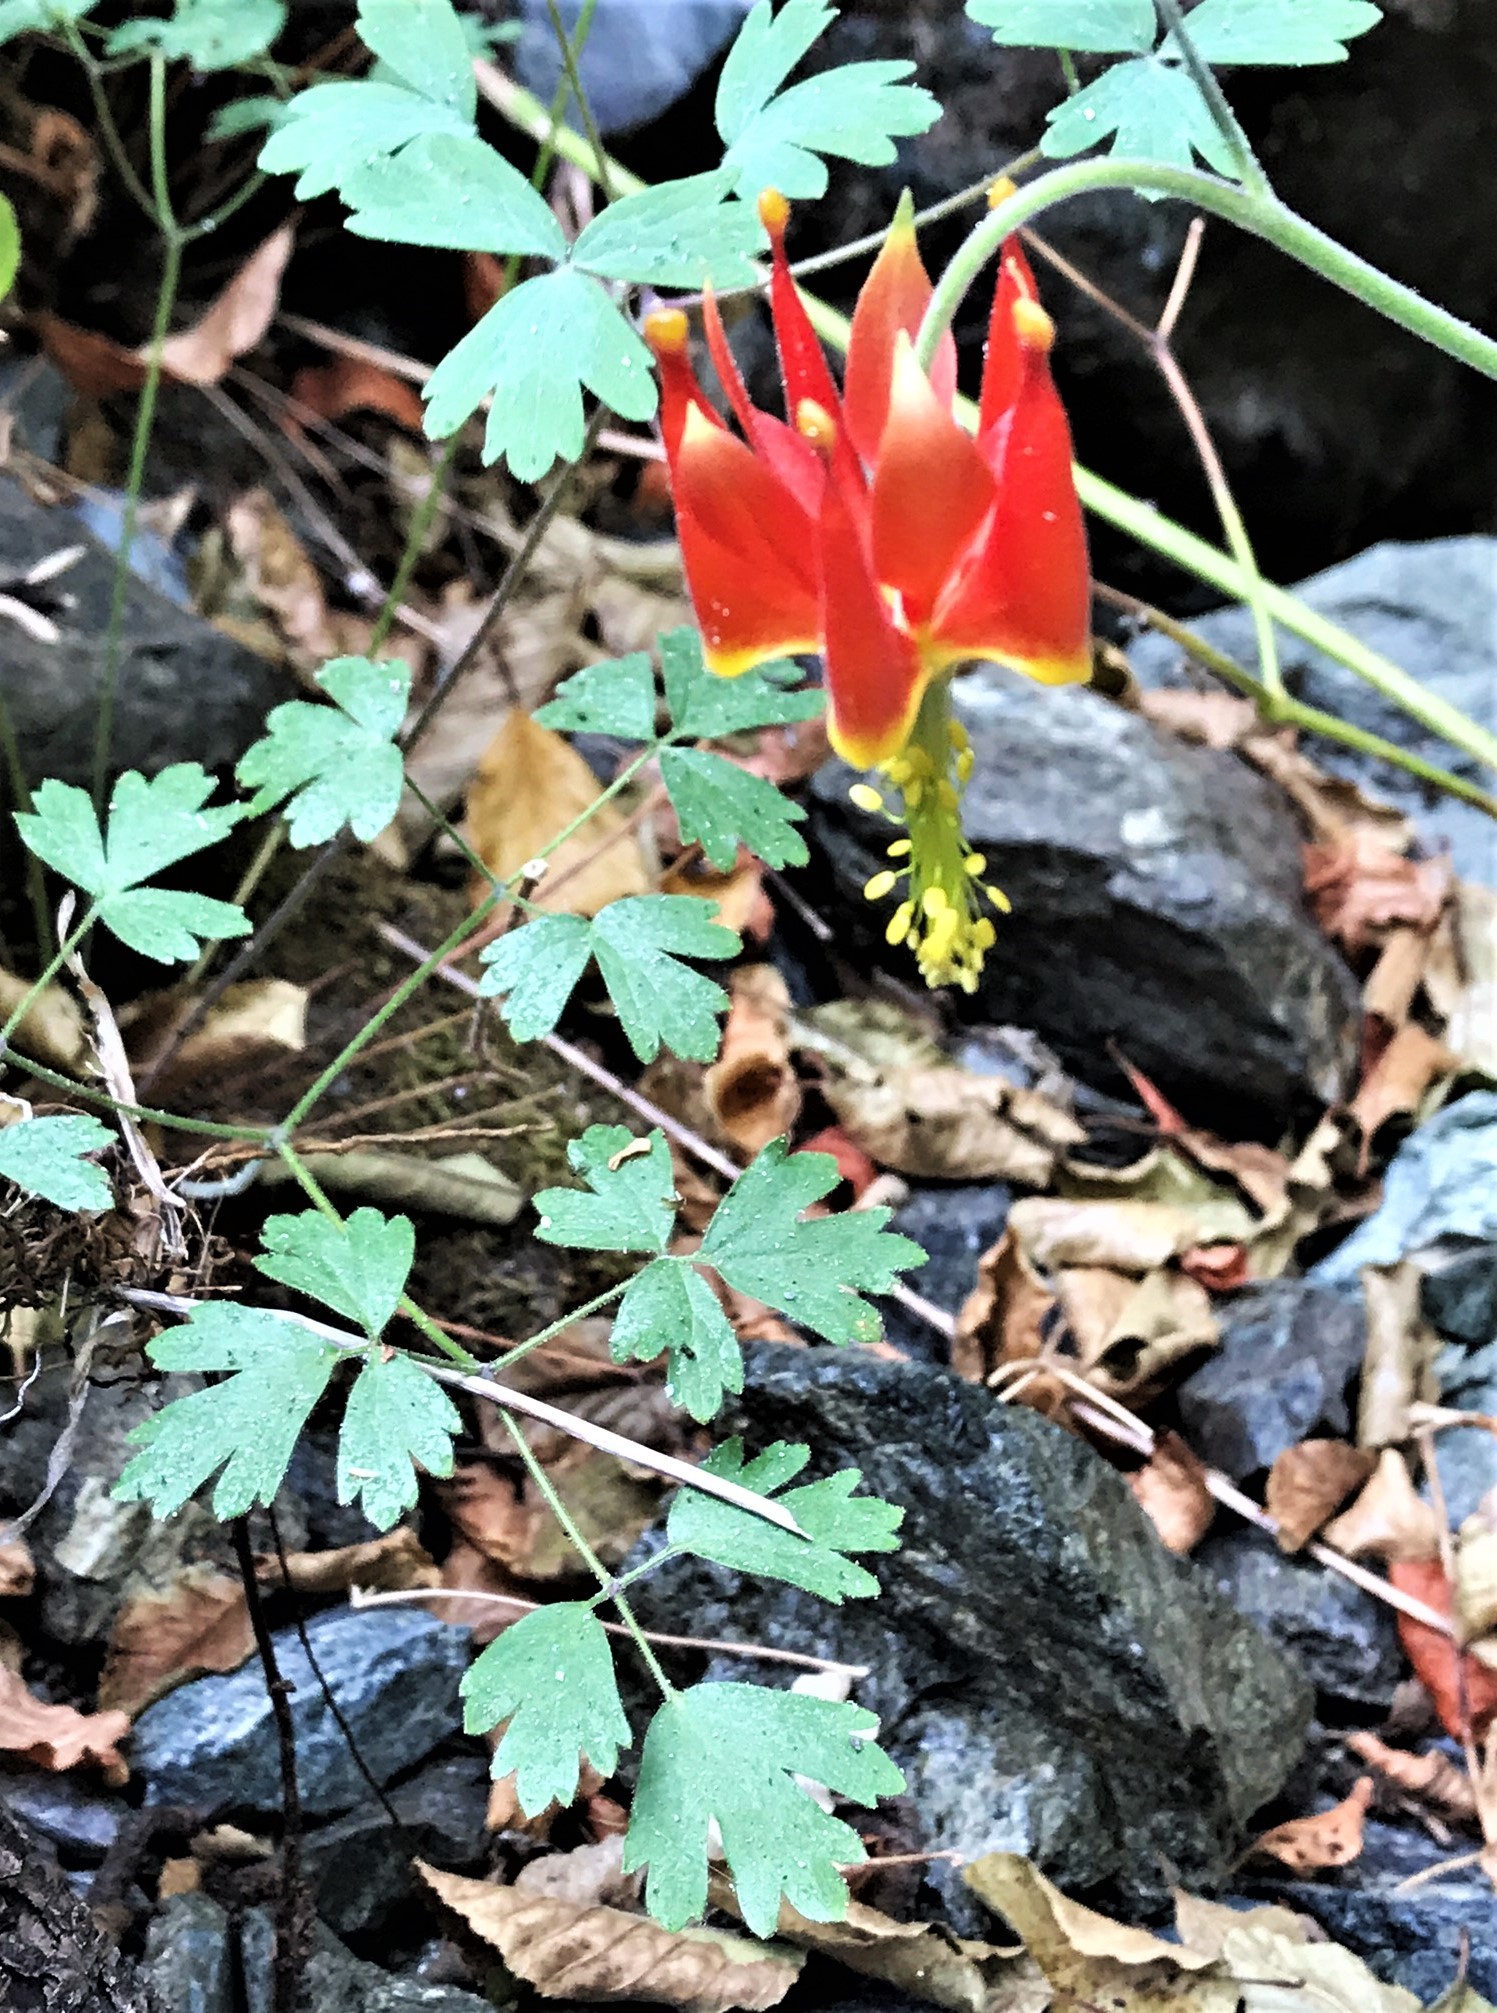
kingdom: Plantae
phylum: Tracheophyta
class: Magnoliopsida
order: Ranunculales
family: Ranunculaceae
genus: Aquilegia
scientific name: Aquilegia eximia
